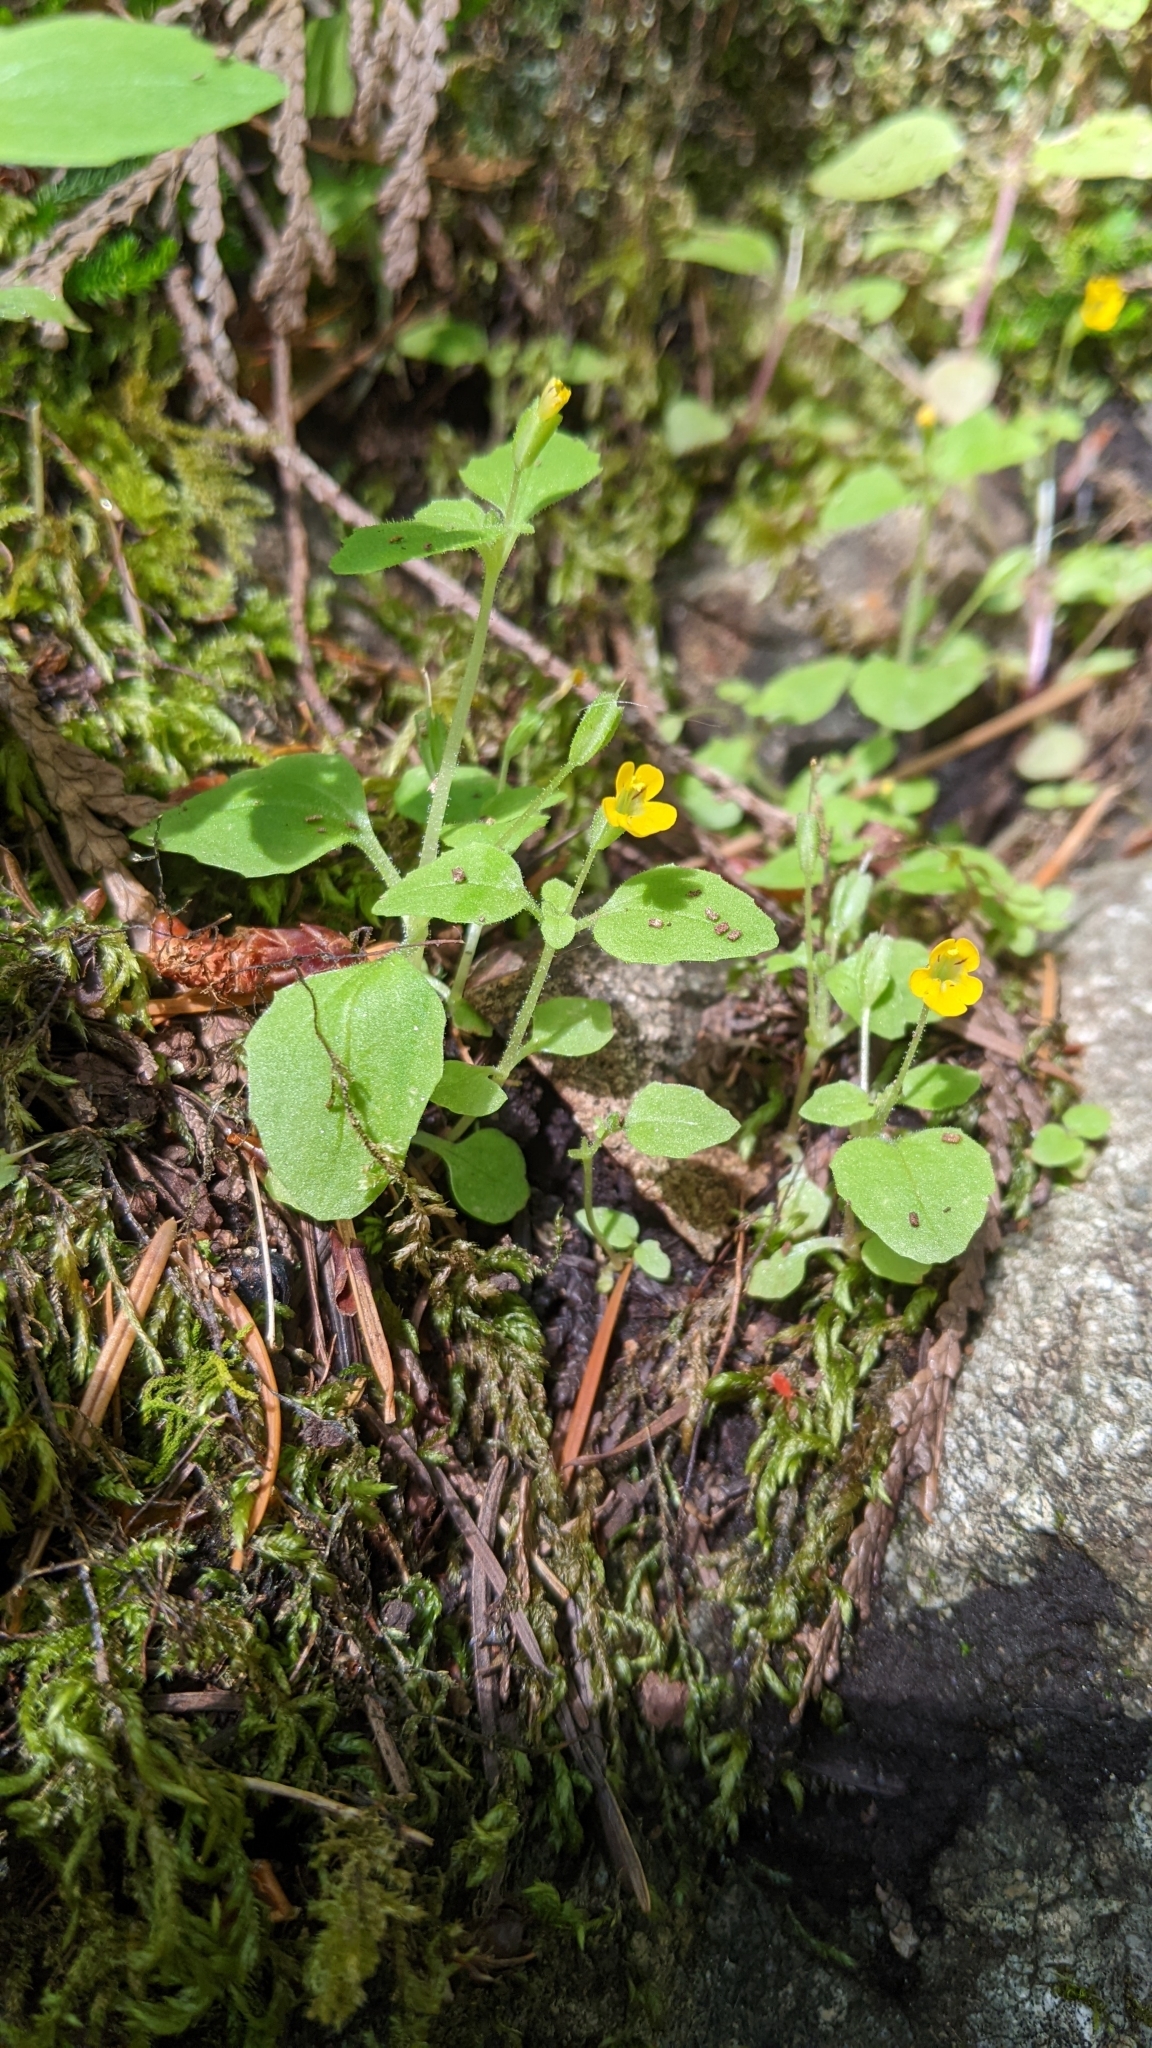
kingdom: Plantae
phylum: Tracheophyta
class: Magnoliopsida
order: Lamiales
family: Phrymaceae
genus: Erythranthe
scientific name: Erythranthe alsinoides
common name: Chickweed monkeyflower
